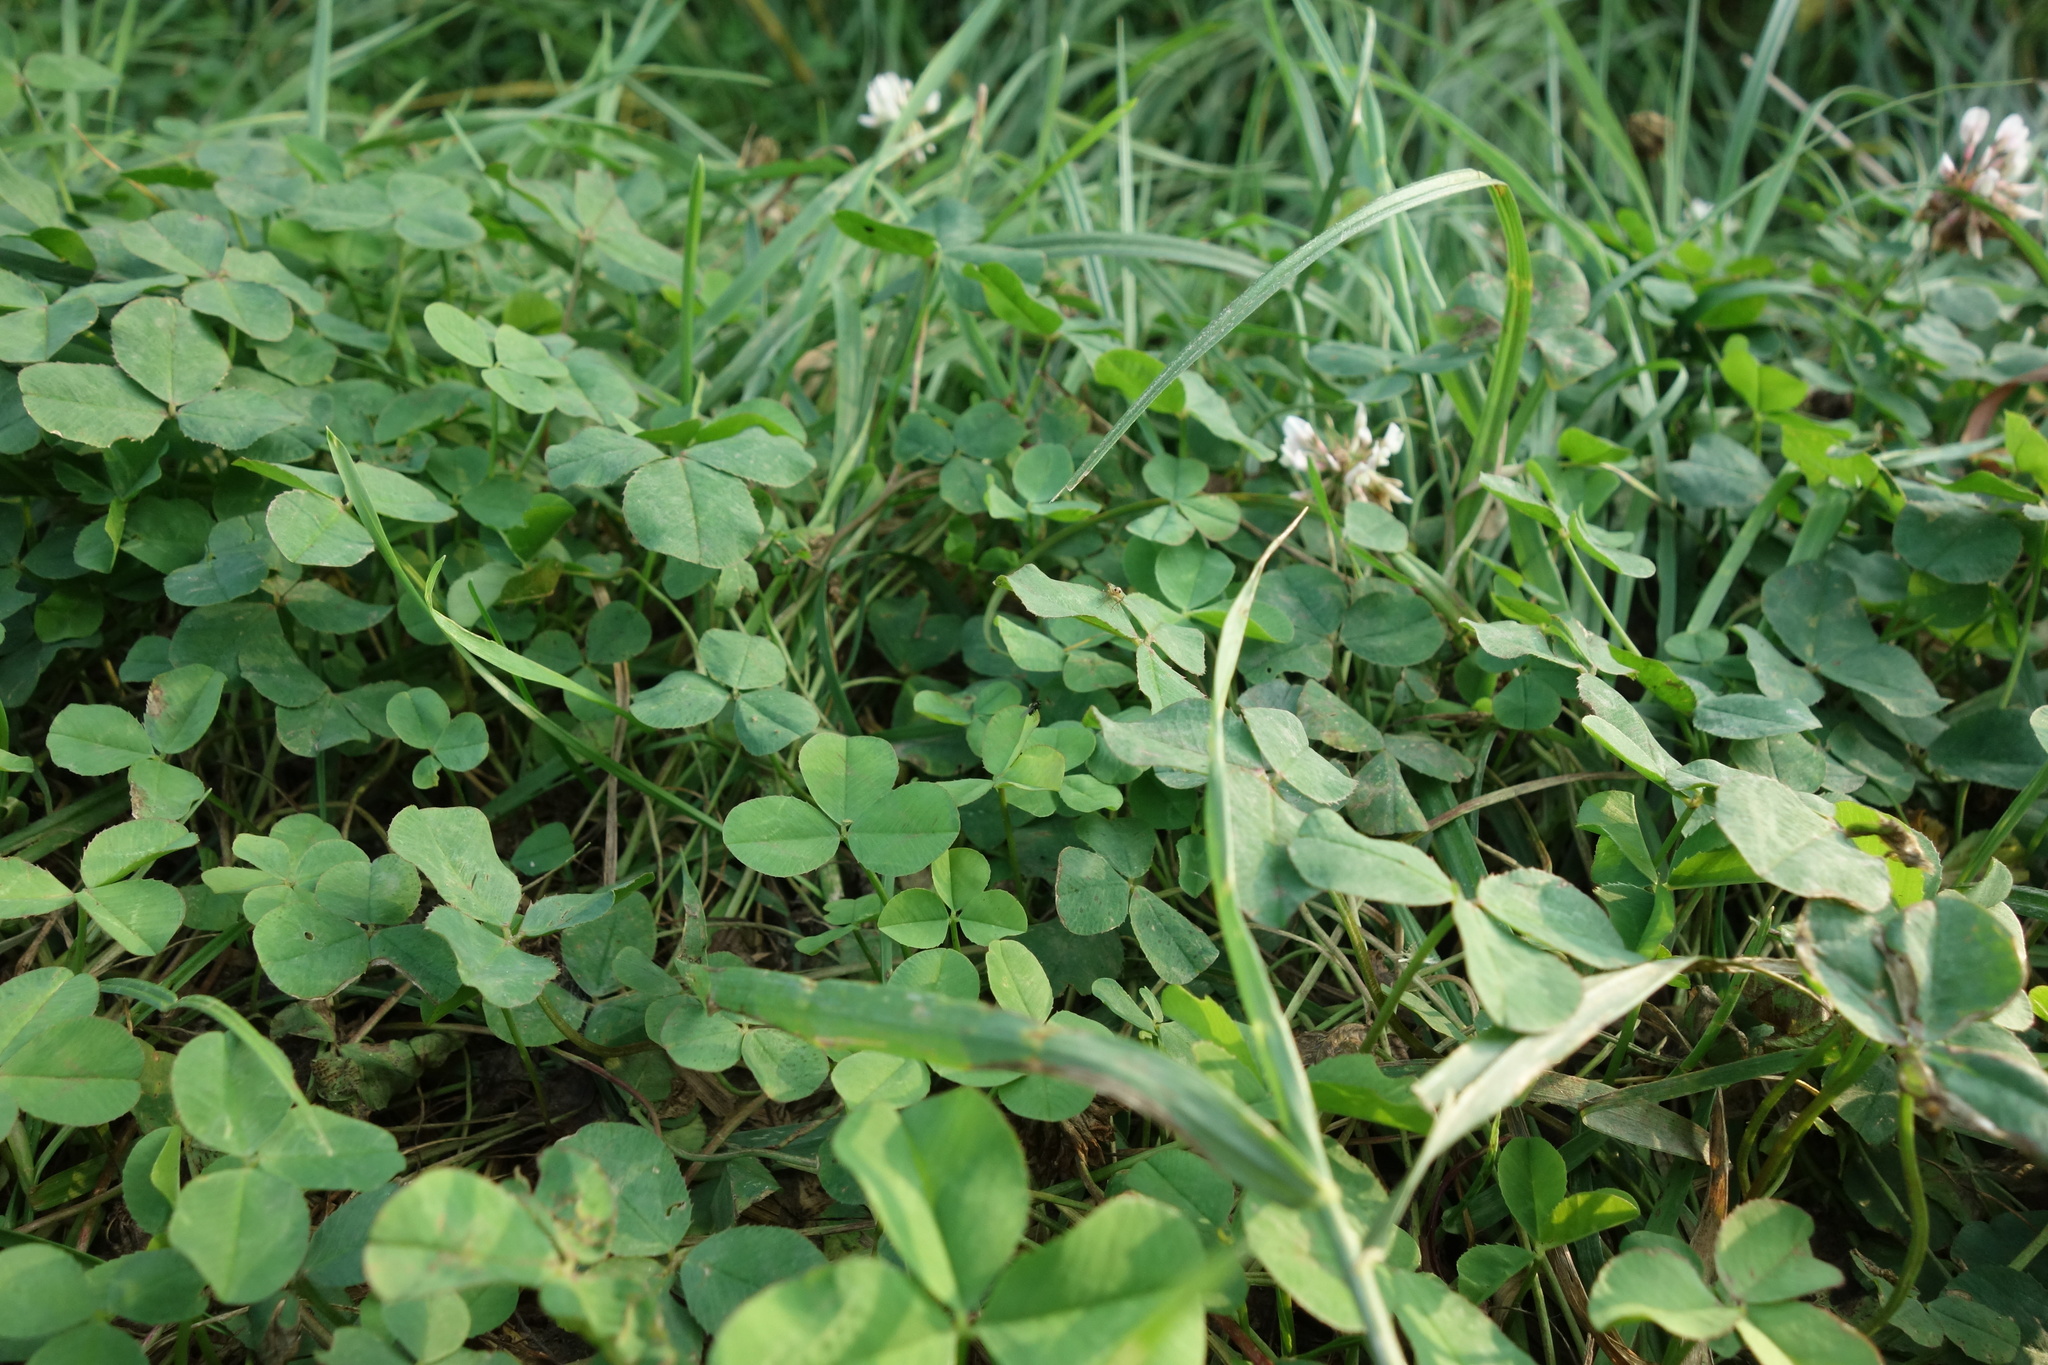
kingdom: Plantae
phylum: Tracheophyta
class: Magnoliopsida
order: Fabales
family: Fabaceae
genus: Trifolium
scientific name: Trifolium repens
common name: White clover
